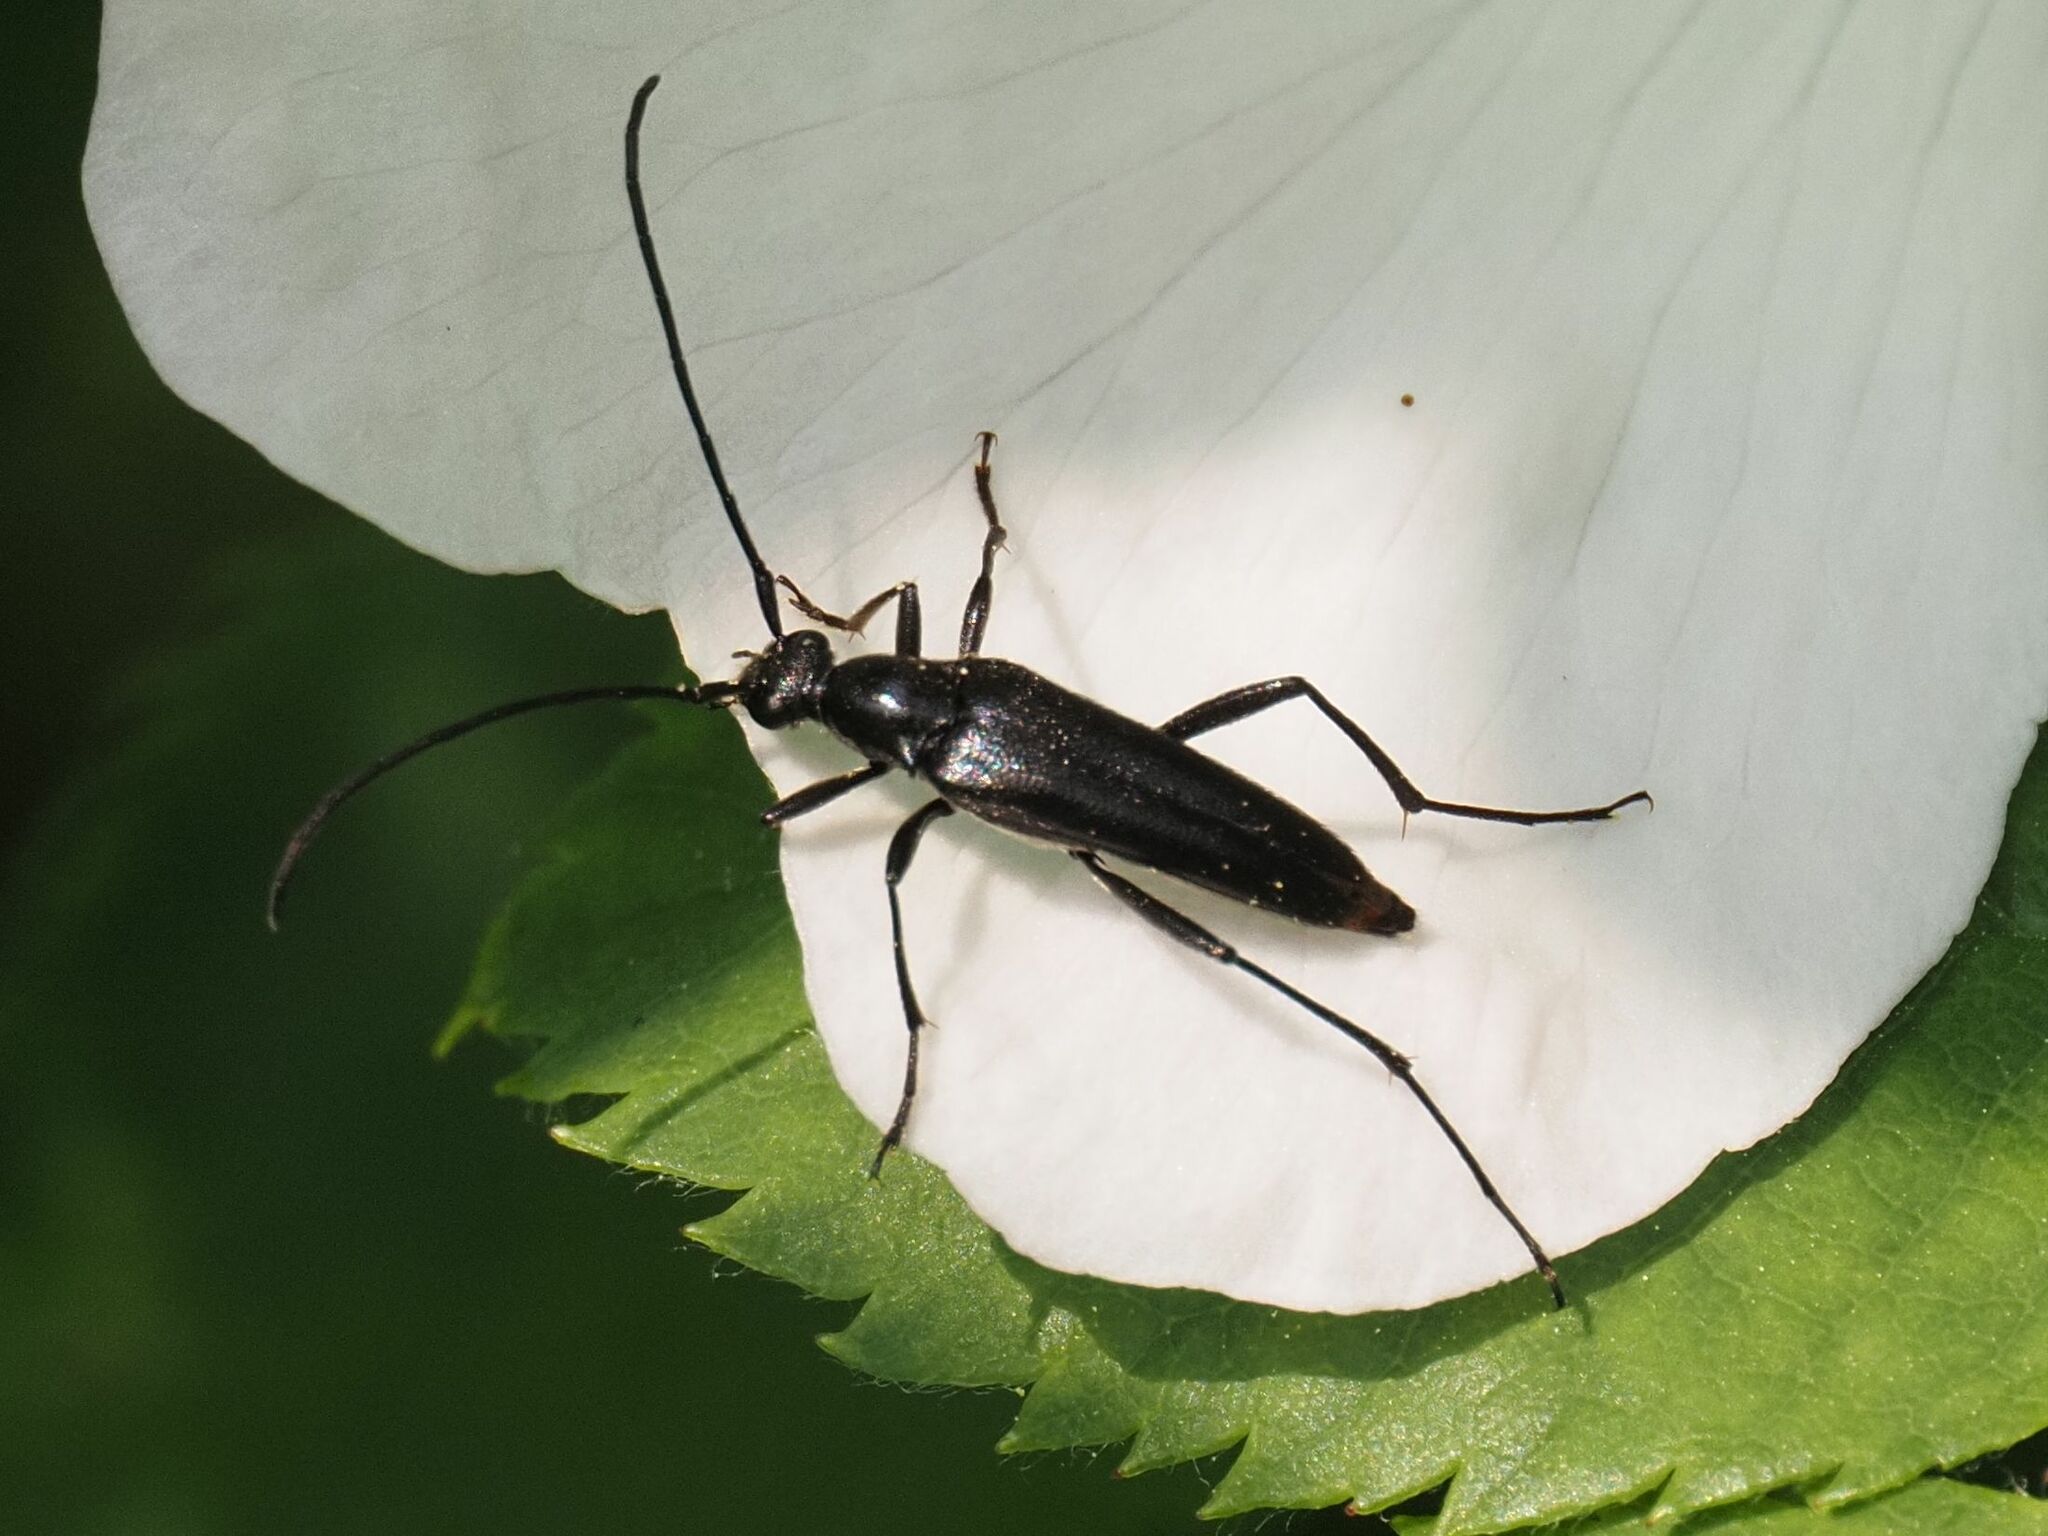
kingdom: Animalia
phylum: Arthropoda
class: Insecta
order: Coleoptera
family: Cerambycidae
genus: Stenurella
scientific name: Stenurella nigra
